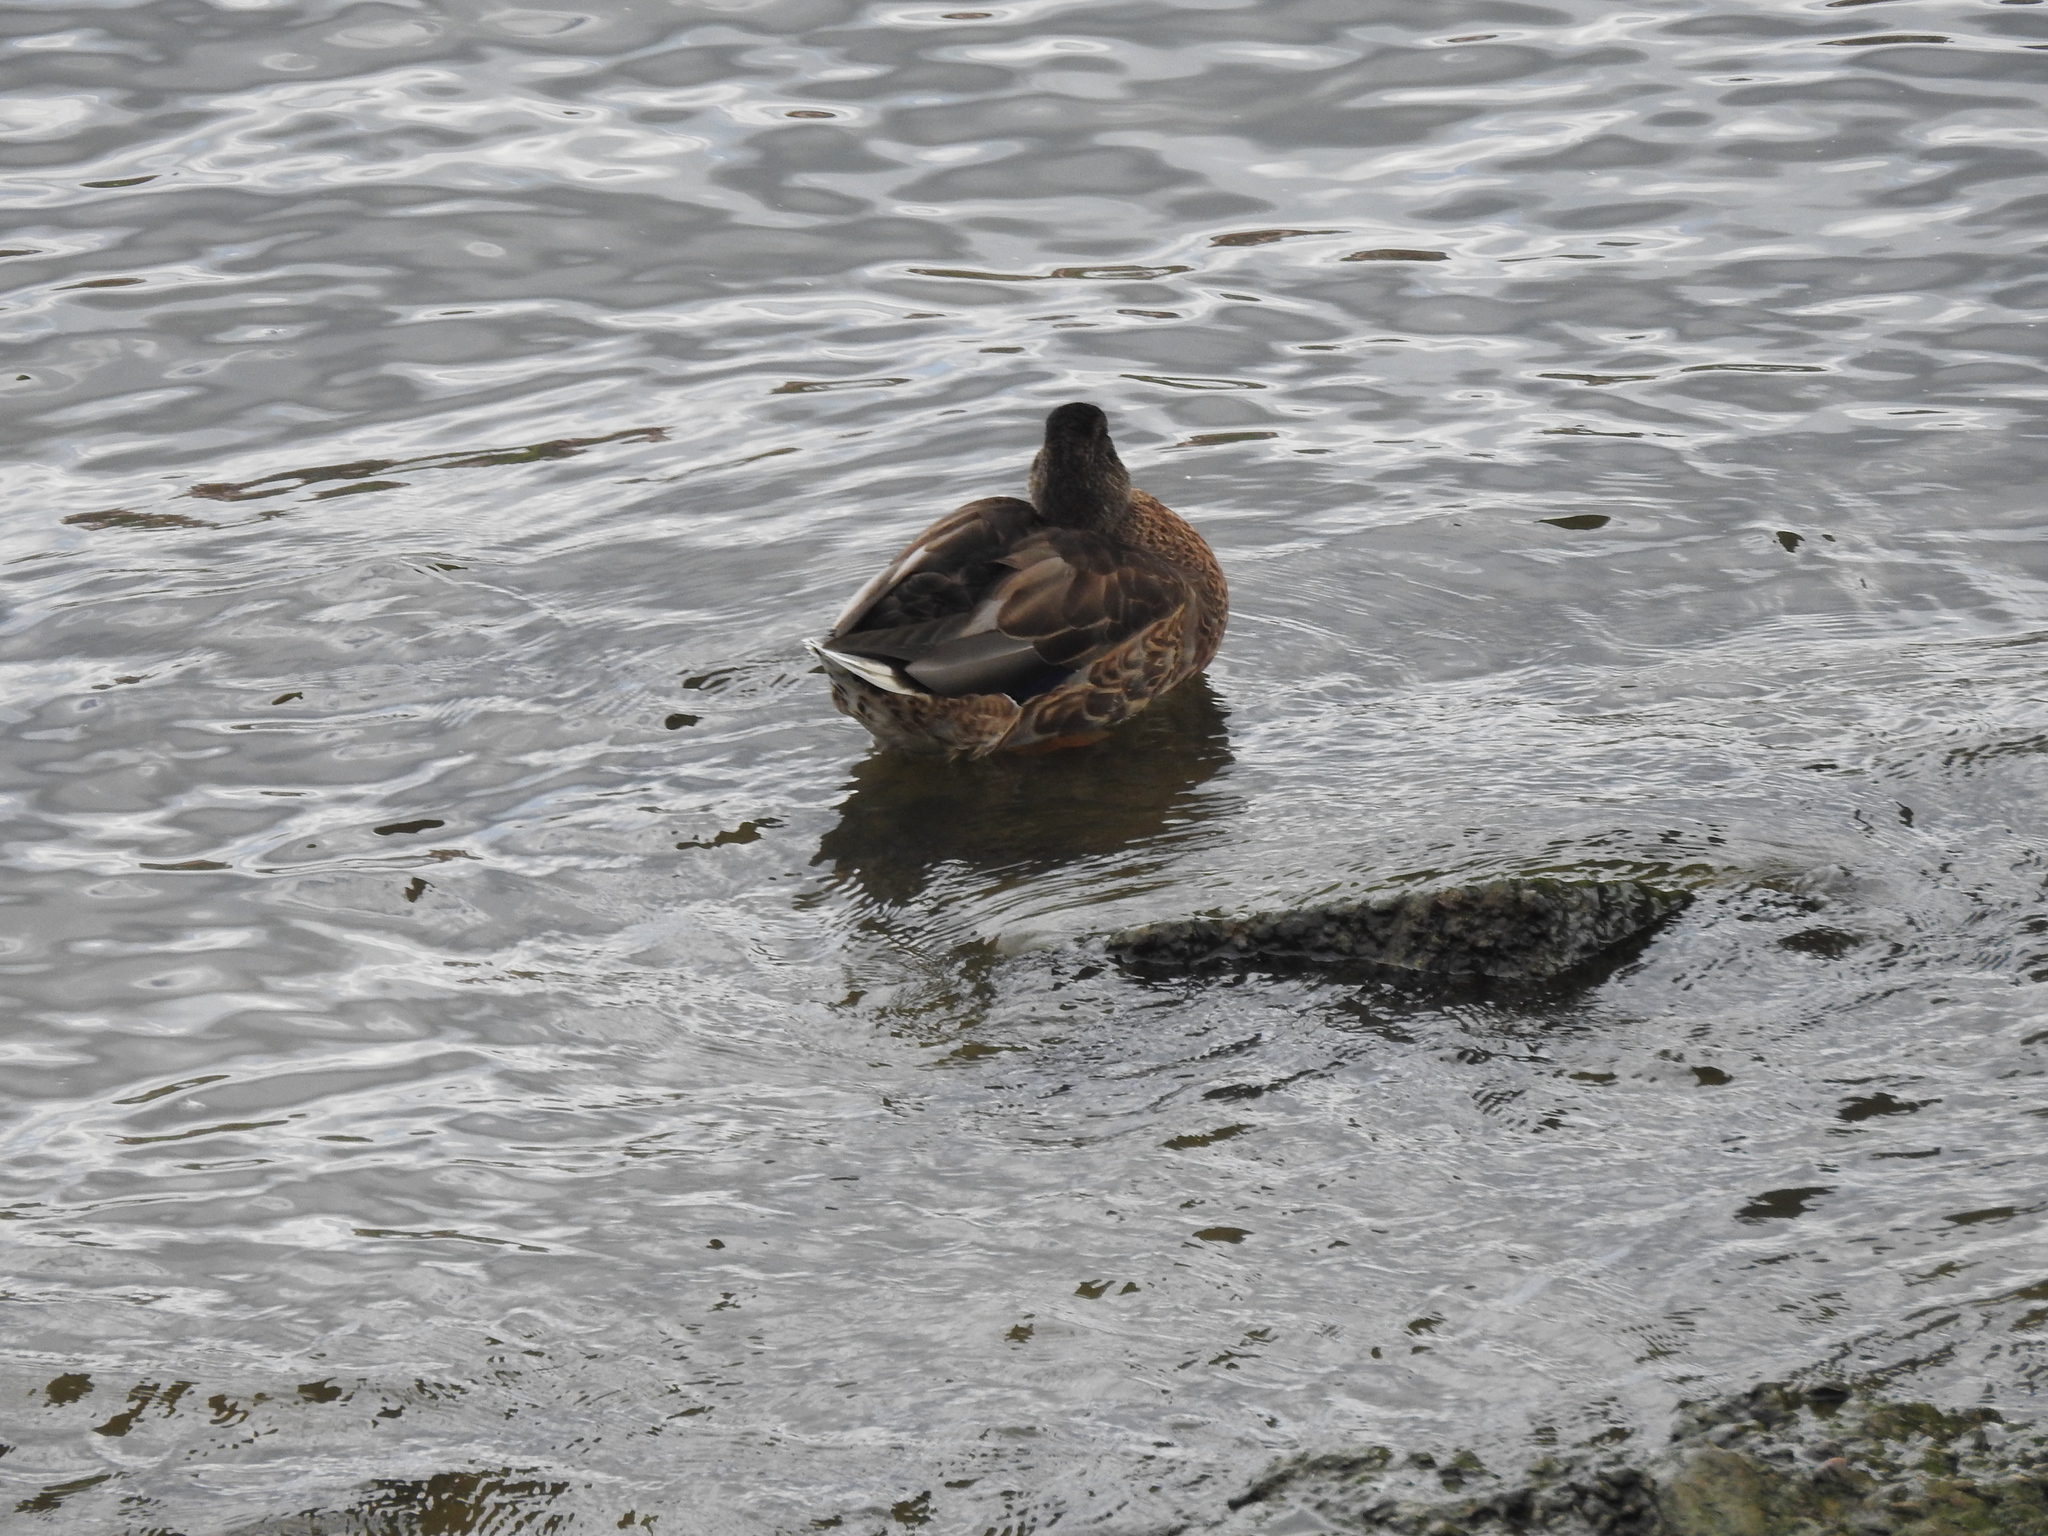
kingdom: Animalia
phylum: Chordata
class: Aves
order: Anseriformes
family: Anatidae
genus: Anas
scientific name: Anas platyrhynchos
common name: Mallard
